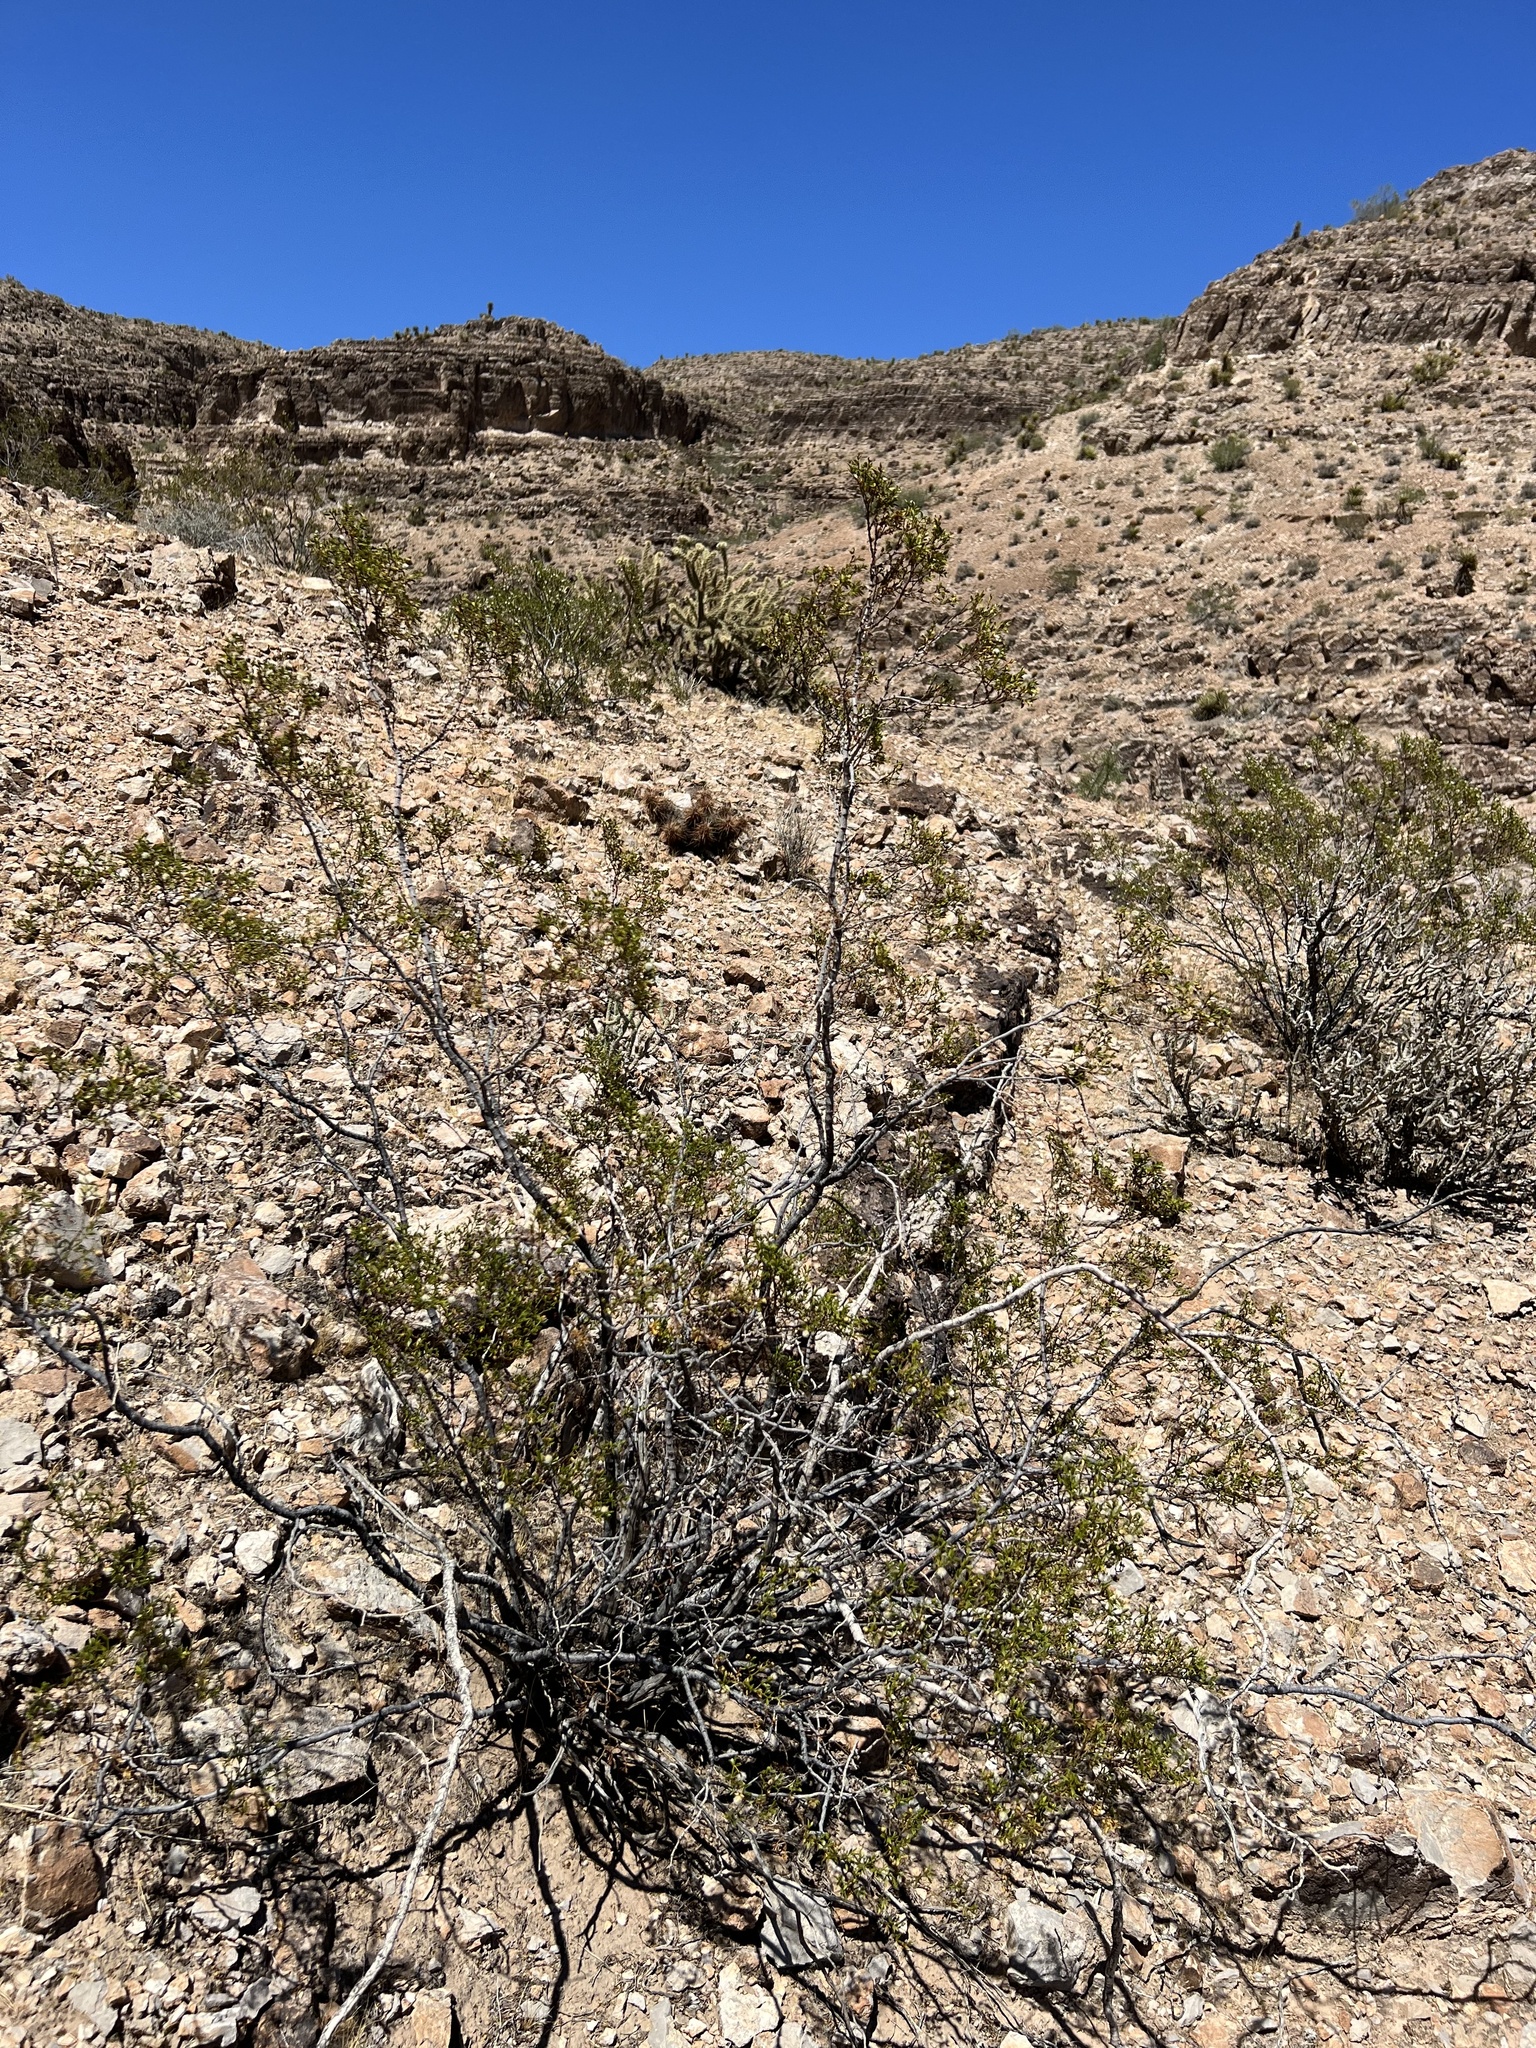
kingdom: Plantae
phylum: Tracheophyta
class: Magnoliopsida
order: Zygophyllales
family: Zygophyllaceae
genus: Larrea
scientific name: Larrea tridentata
